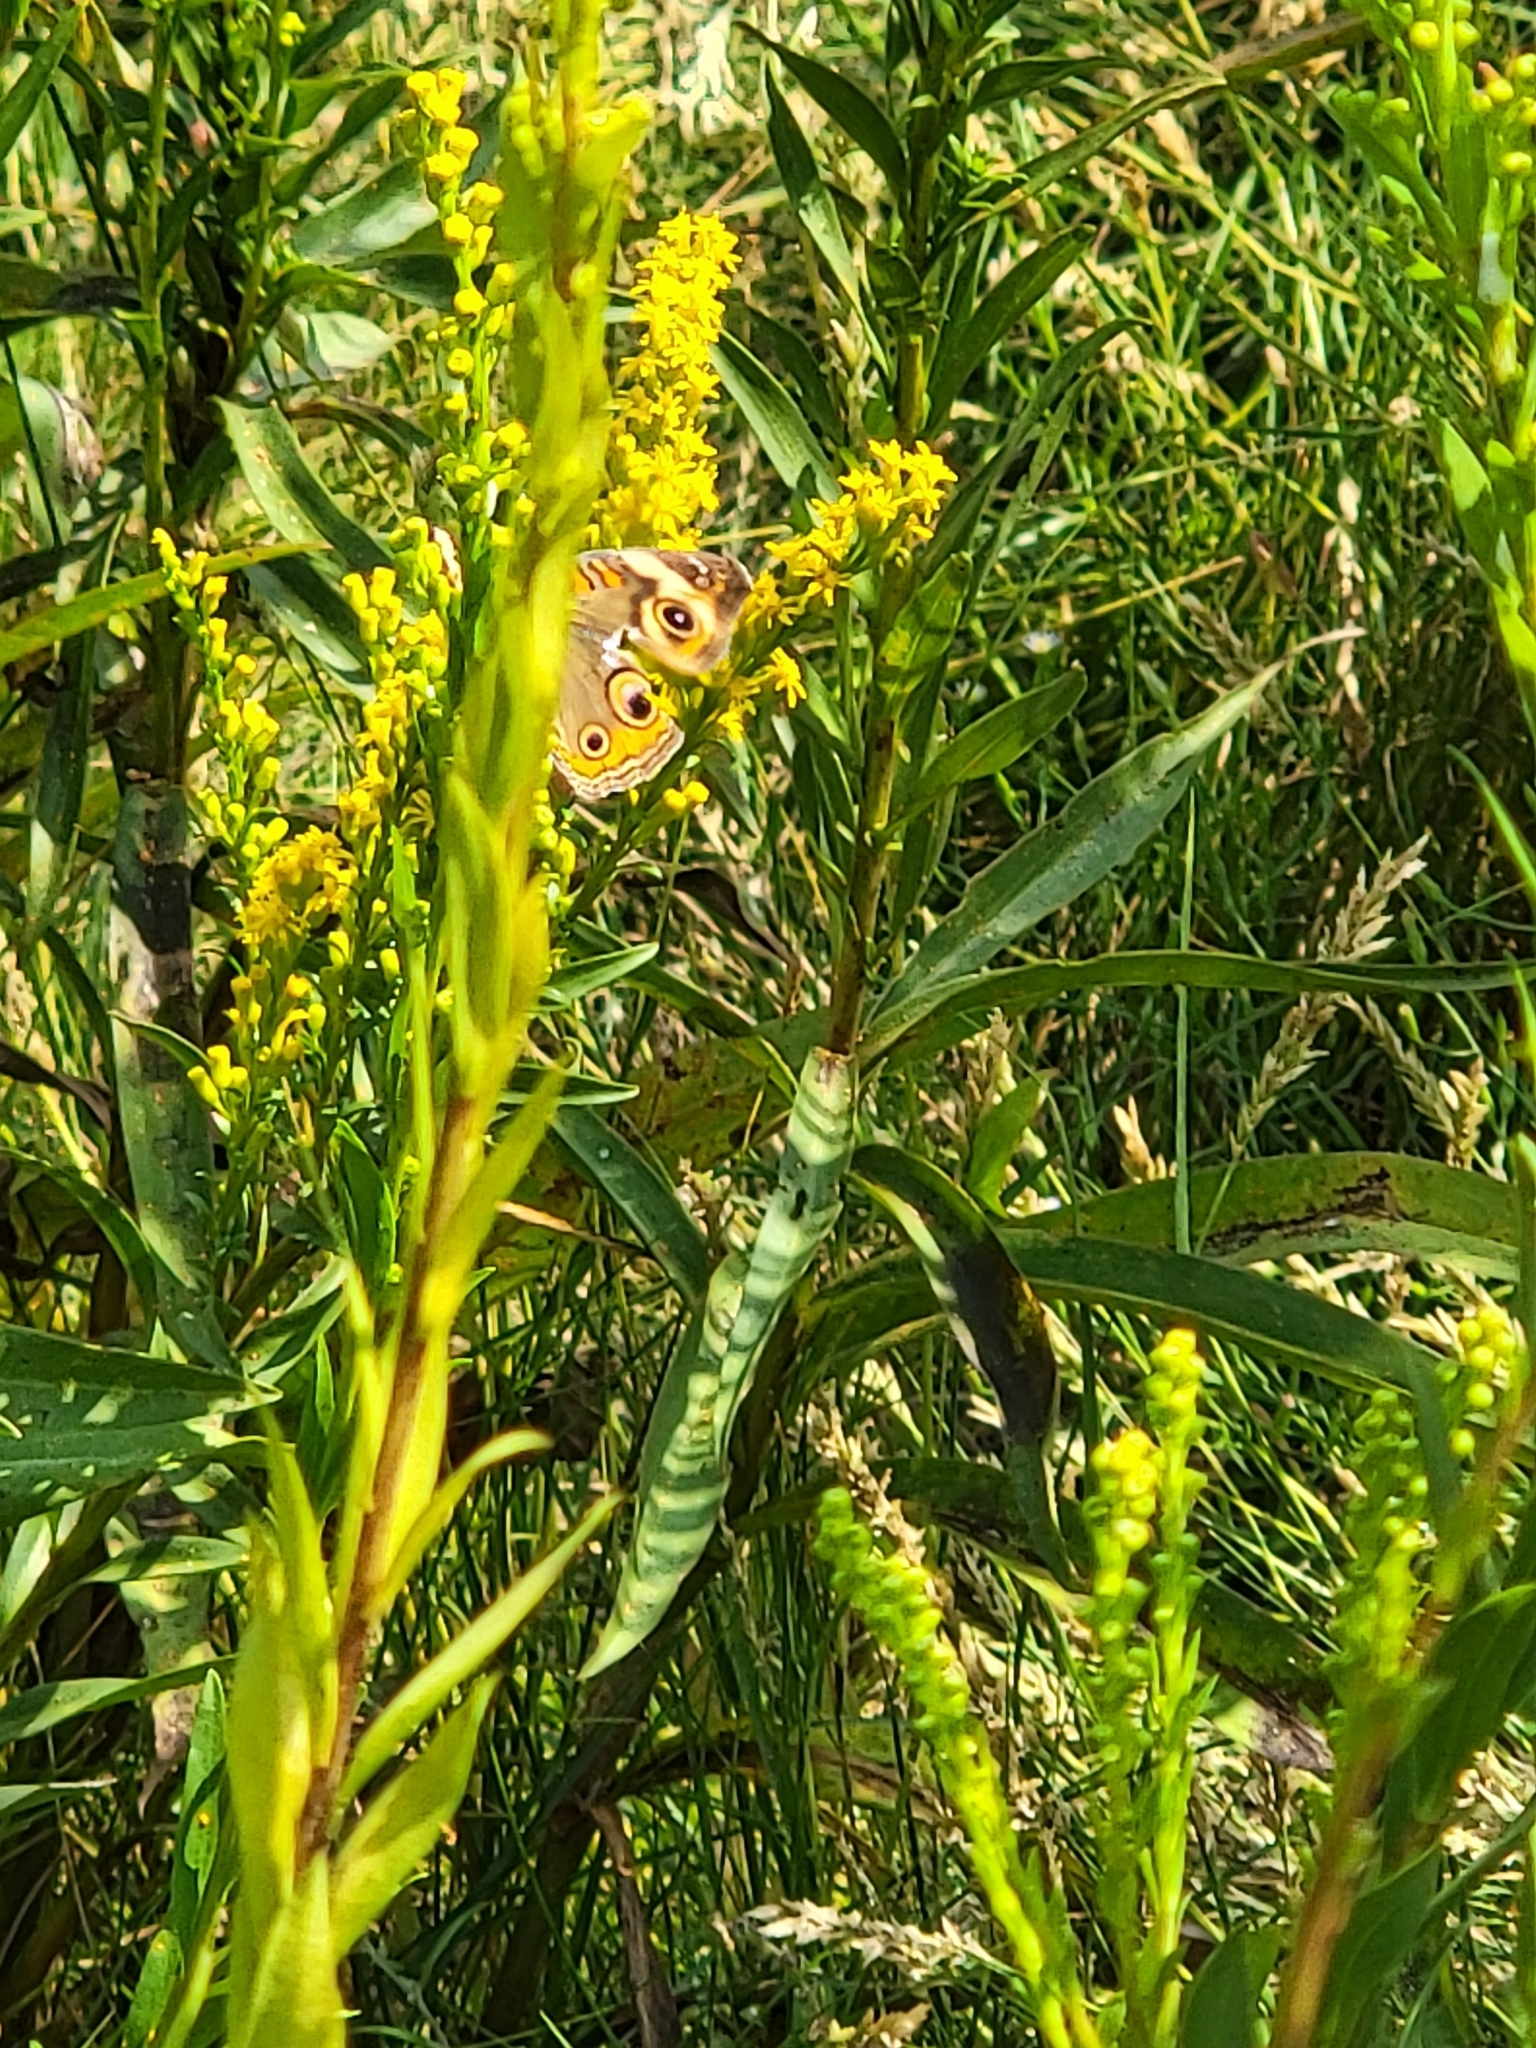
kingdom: Animalia
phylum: Arthropoda
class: Insecta
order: Lepidoptera
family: Nymphalidae
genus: Junonia
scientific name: Junonia coenia
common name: Common buckeye
